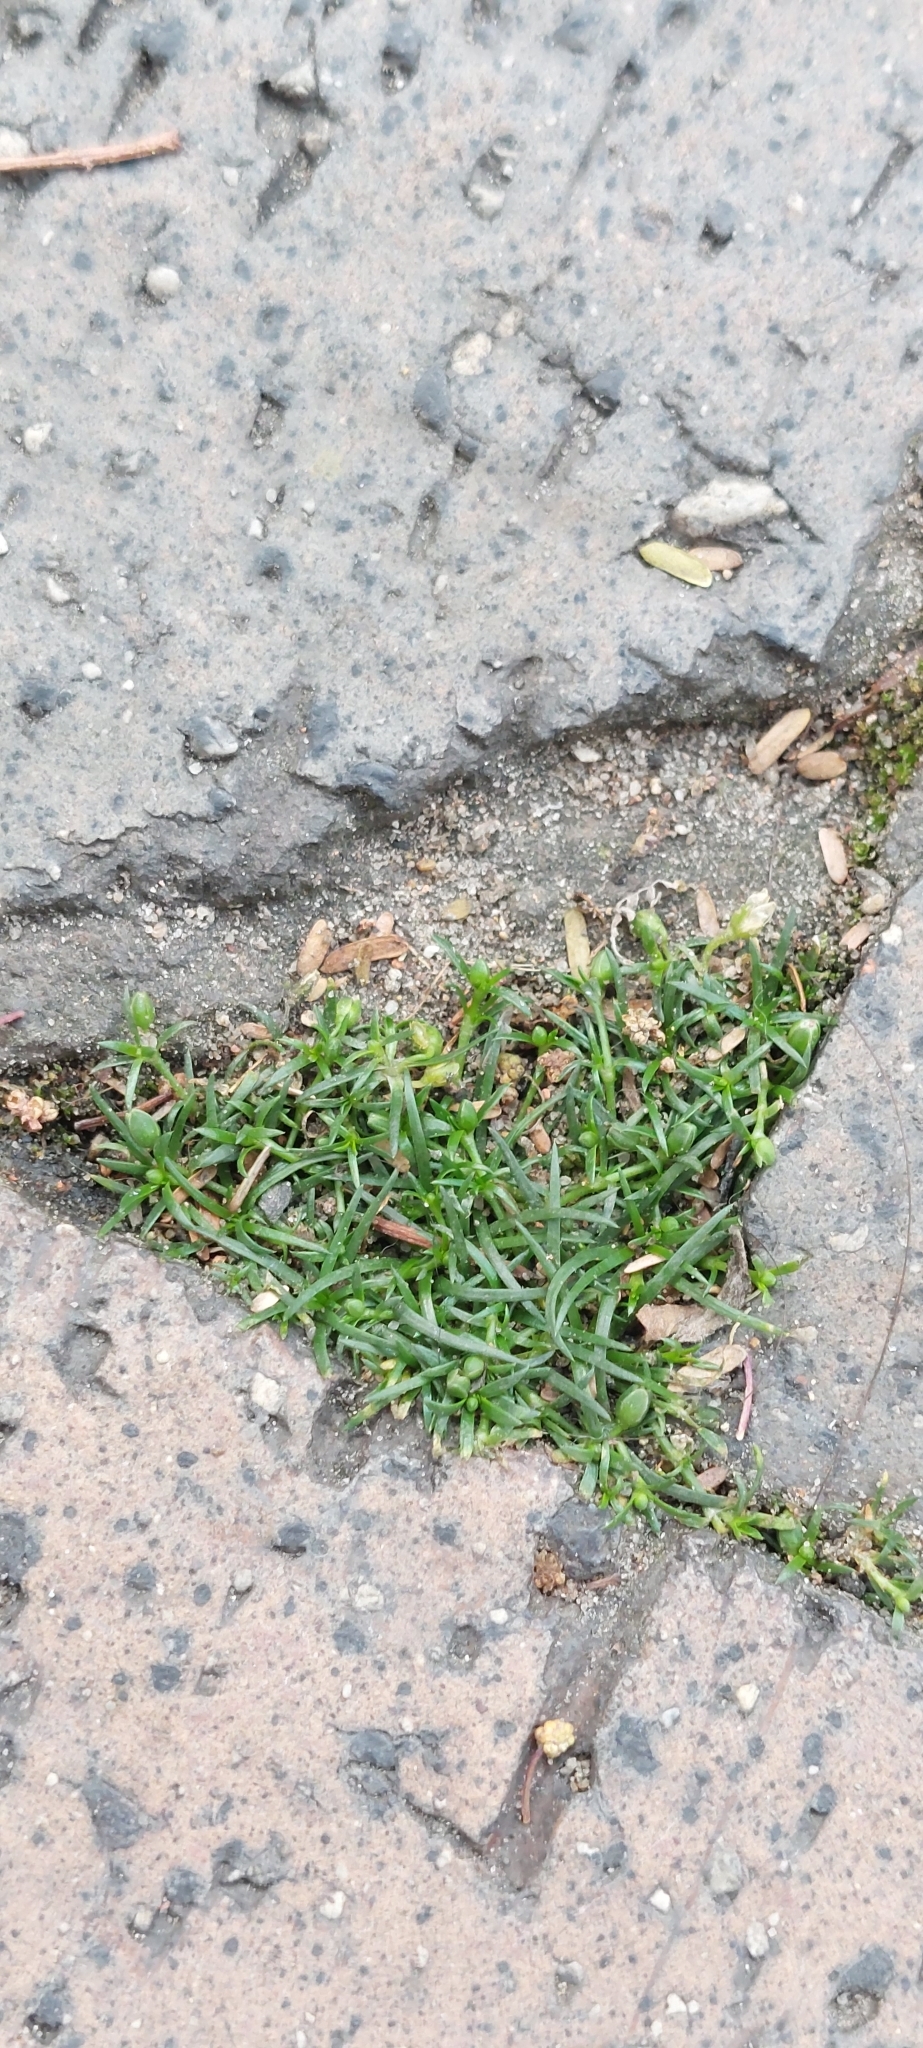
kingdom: Plantae
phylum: Tracheophyta
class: Magnoliopsida
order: Caryophyllales
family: Caryophyllaceae
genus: Sagina
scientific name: Sagina procumbens
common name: Procumbent pearlwort
